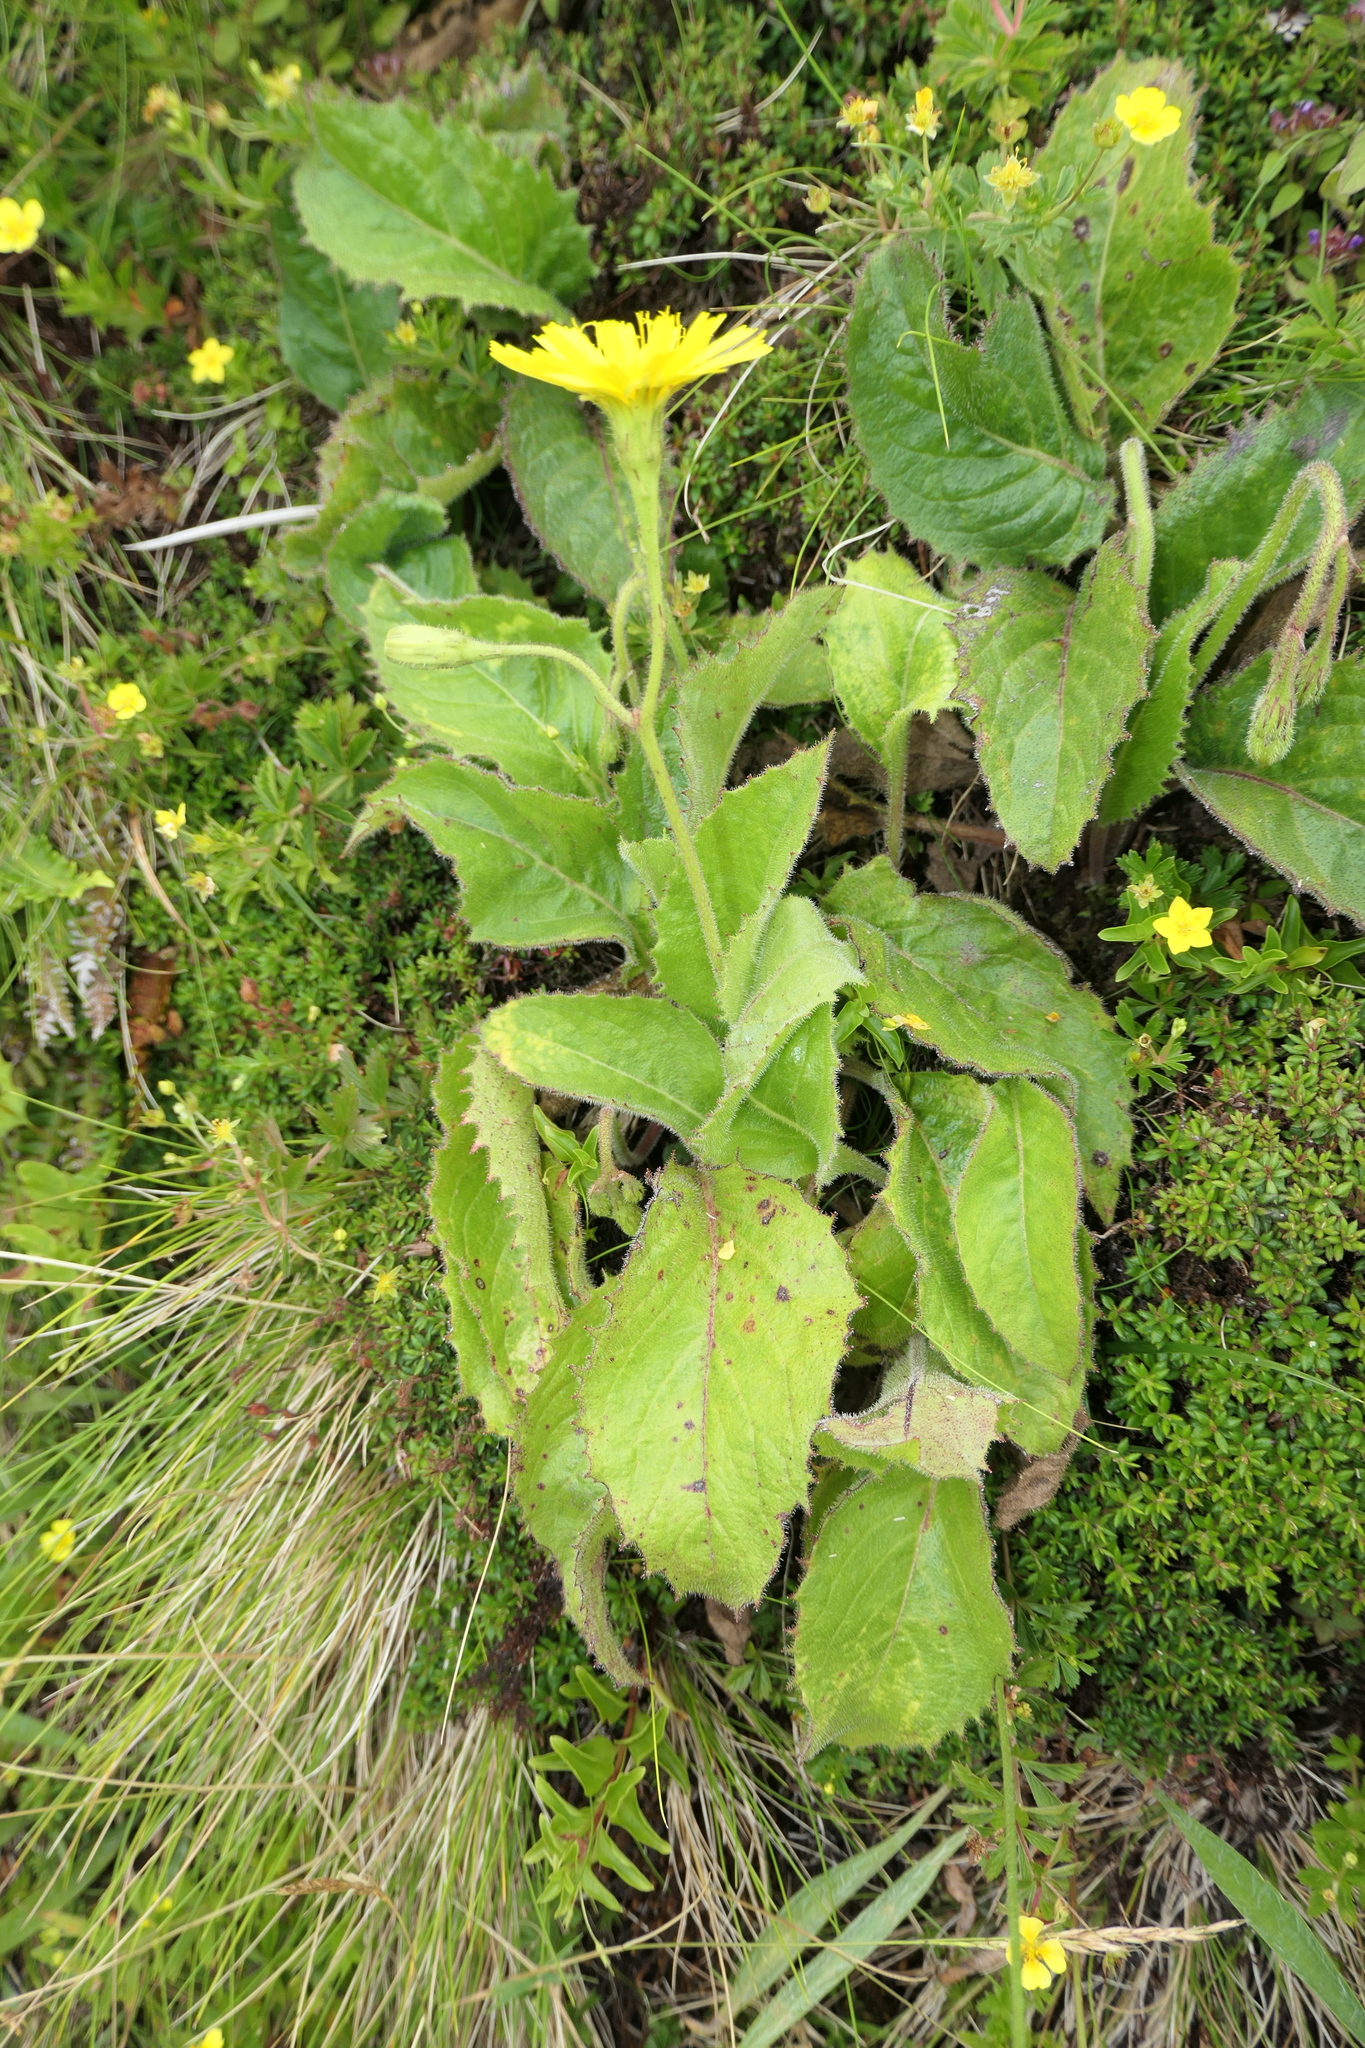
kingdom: Plantae
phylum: Tracheophyta
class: Magnoliopsida
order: Asterales
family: Asteraceae
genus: Leontodon
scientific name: Leontodon filii
